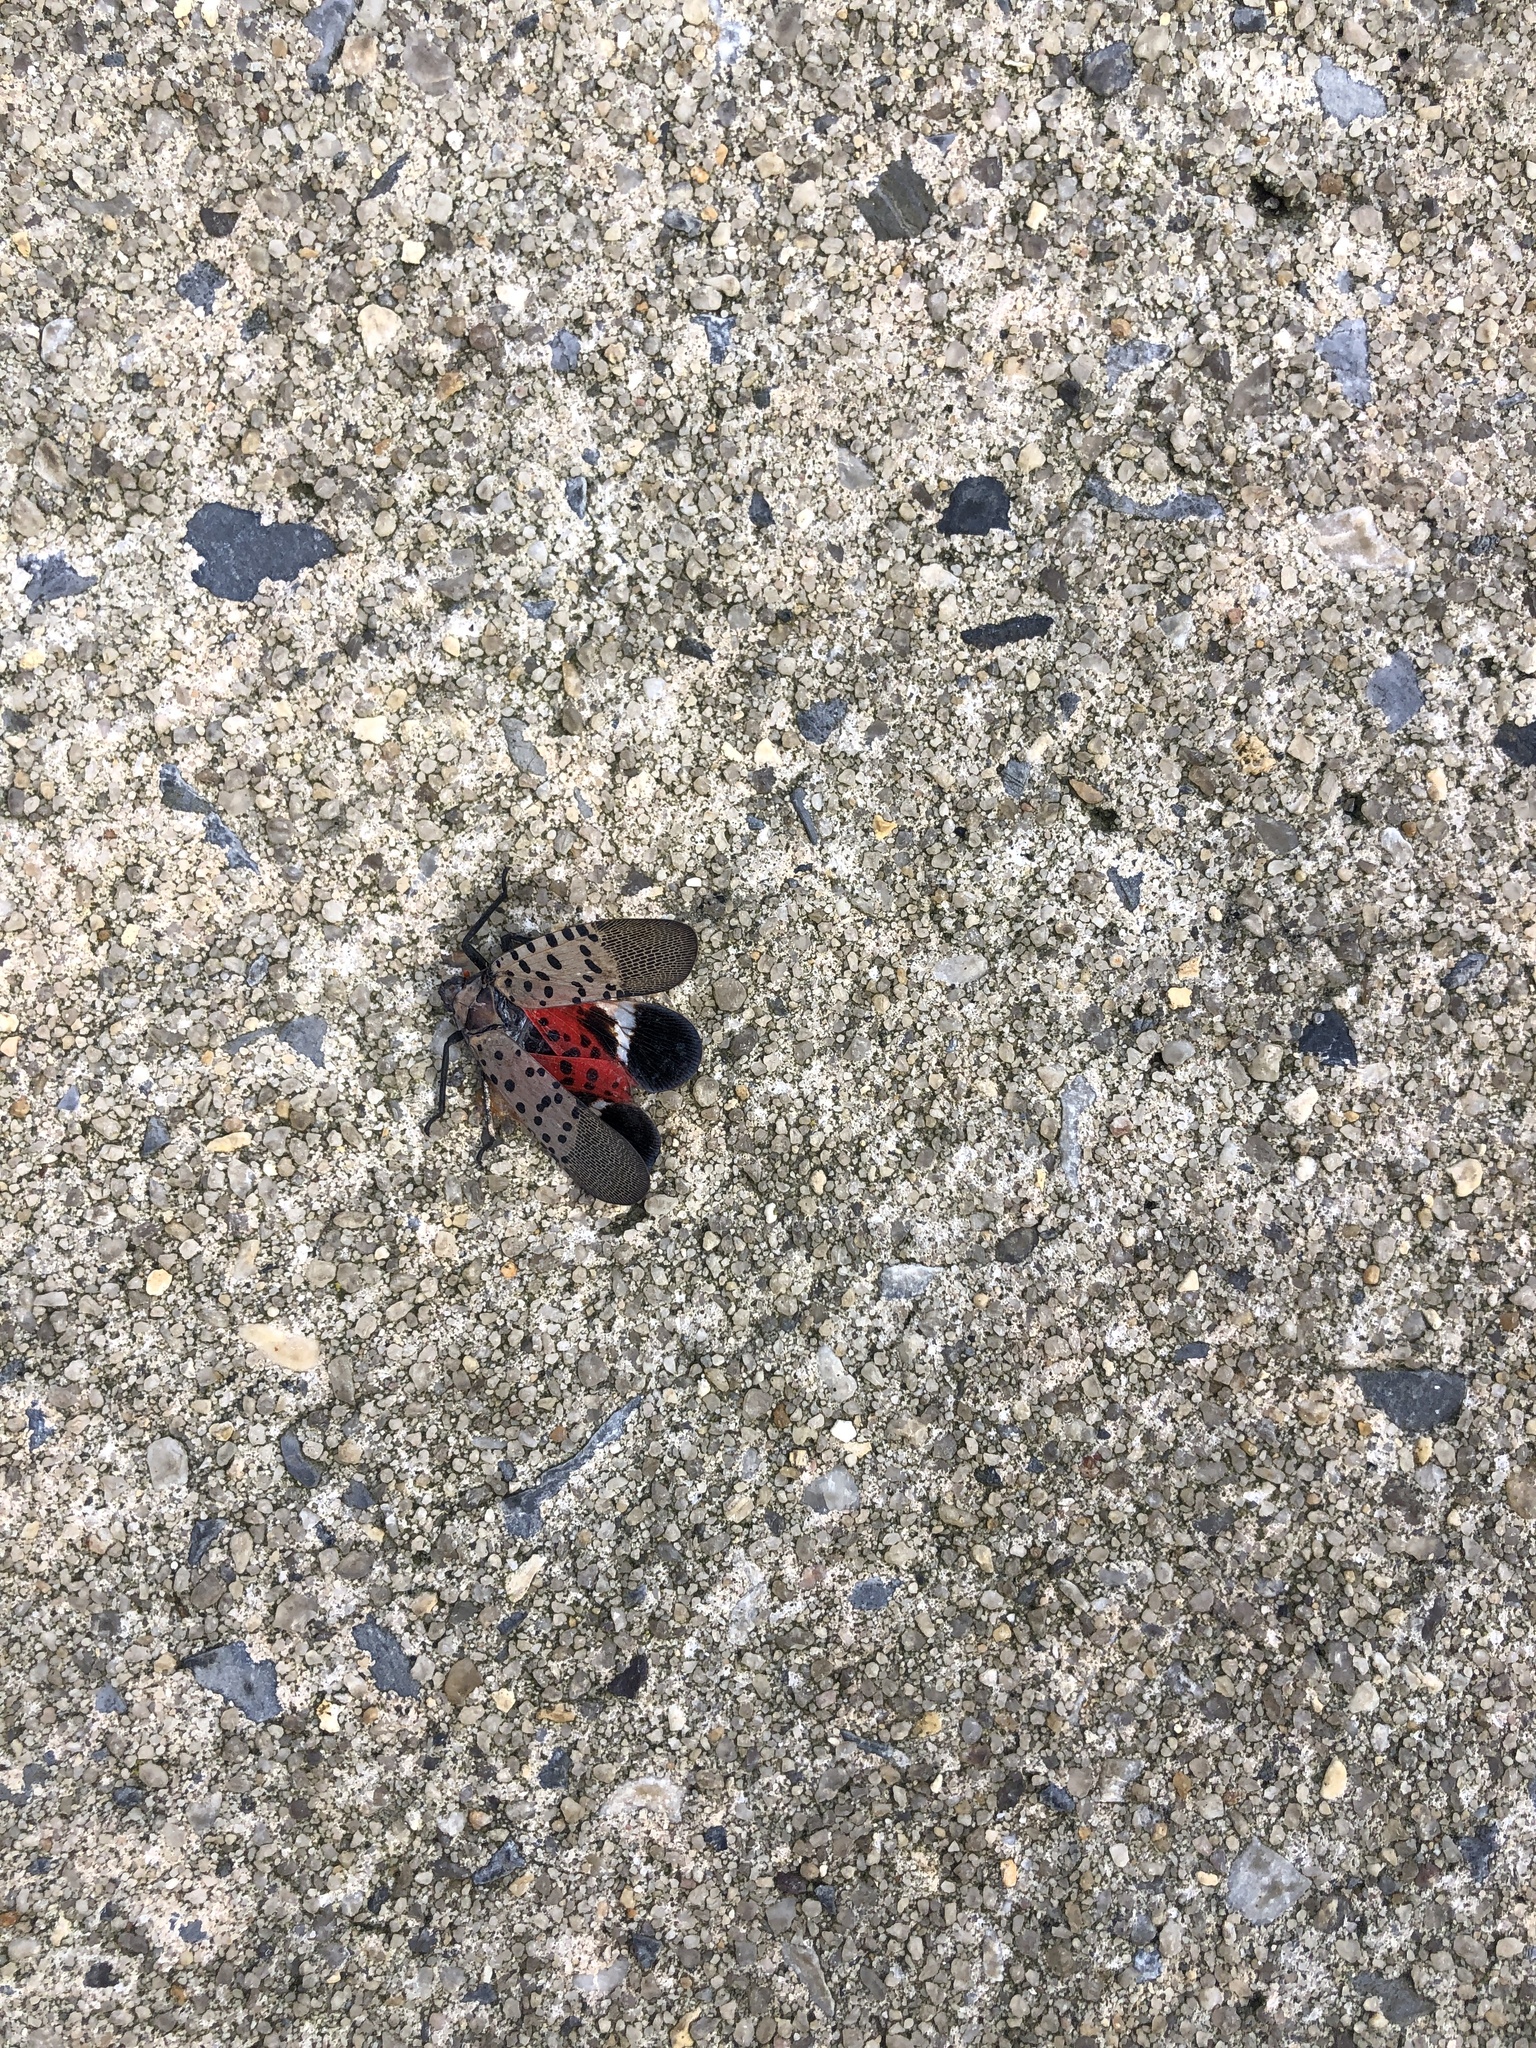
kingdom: Animalia
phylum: Arthropoda
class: Insecta
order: Hemiptera
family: Fulgoridae
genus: Lycorma
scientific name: Lycorma delicatula
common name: Spotted lanternfly
